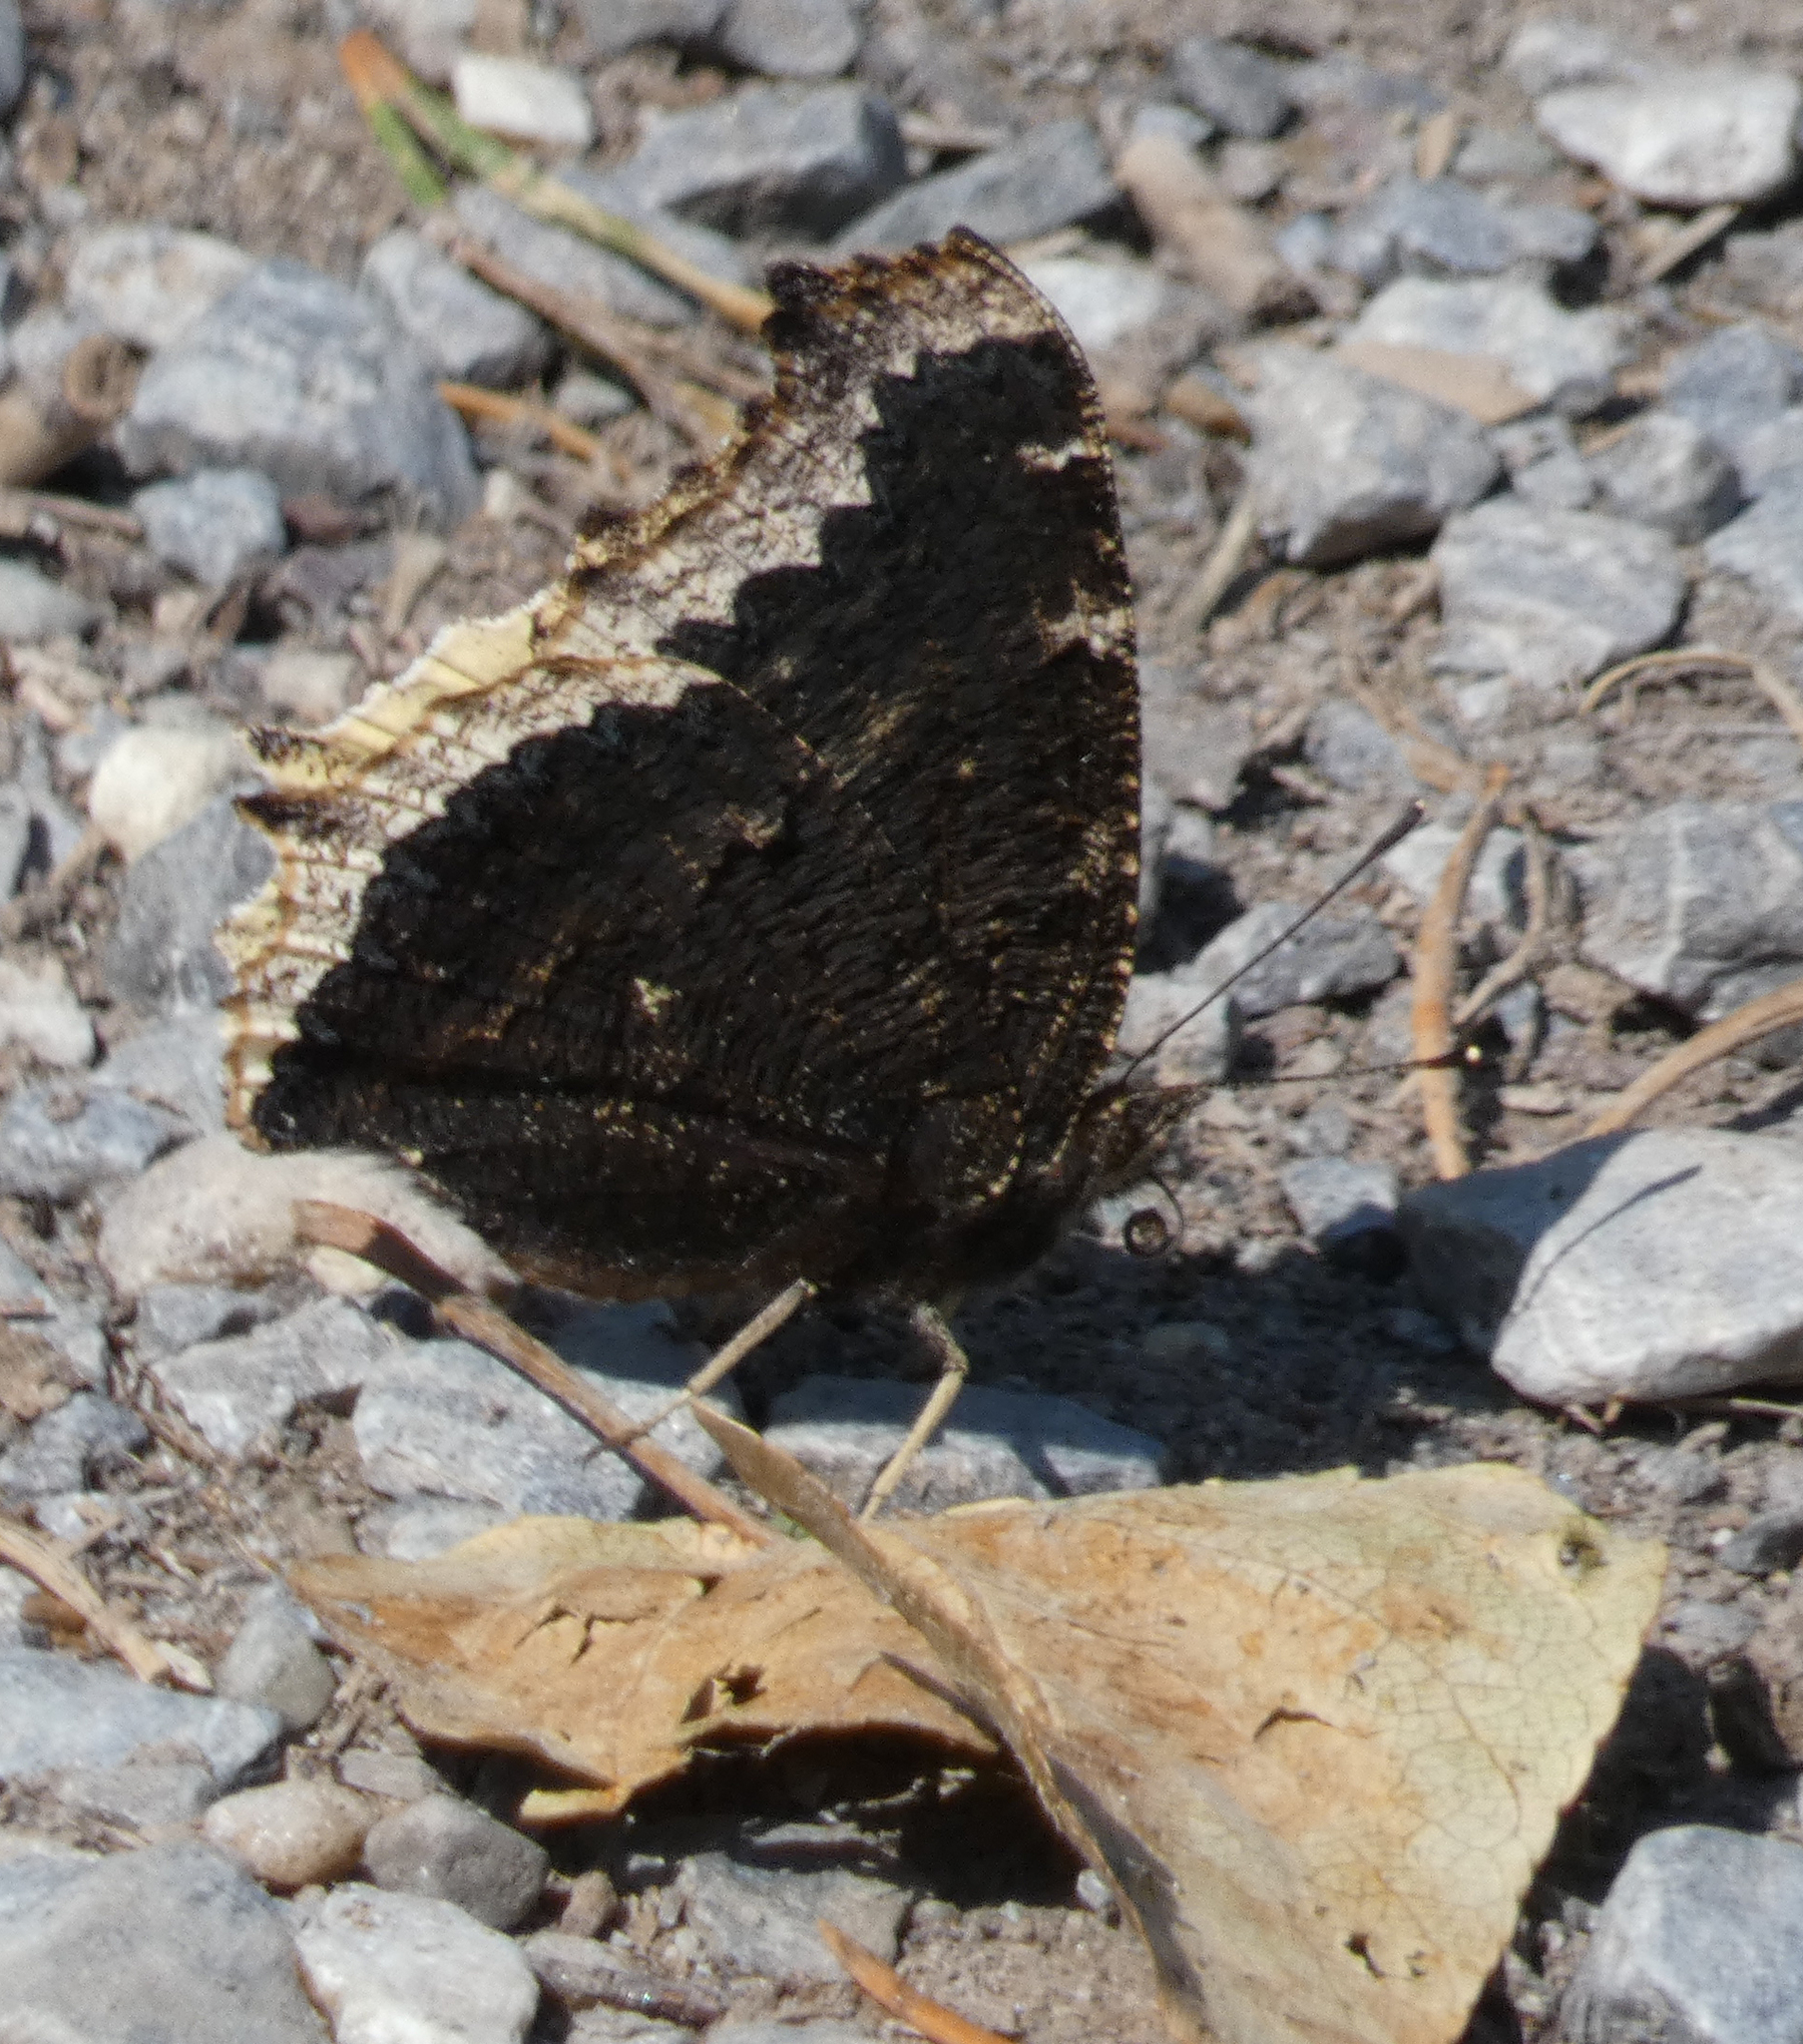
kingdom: Animalia
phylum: Arthropoda
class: Insecta
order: Lepidoptera
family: Nymphalidae
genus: Nymphalis
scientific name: Nymphalis antiopa
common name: Camberwell beauty
